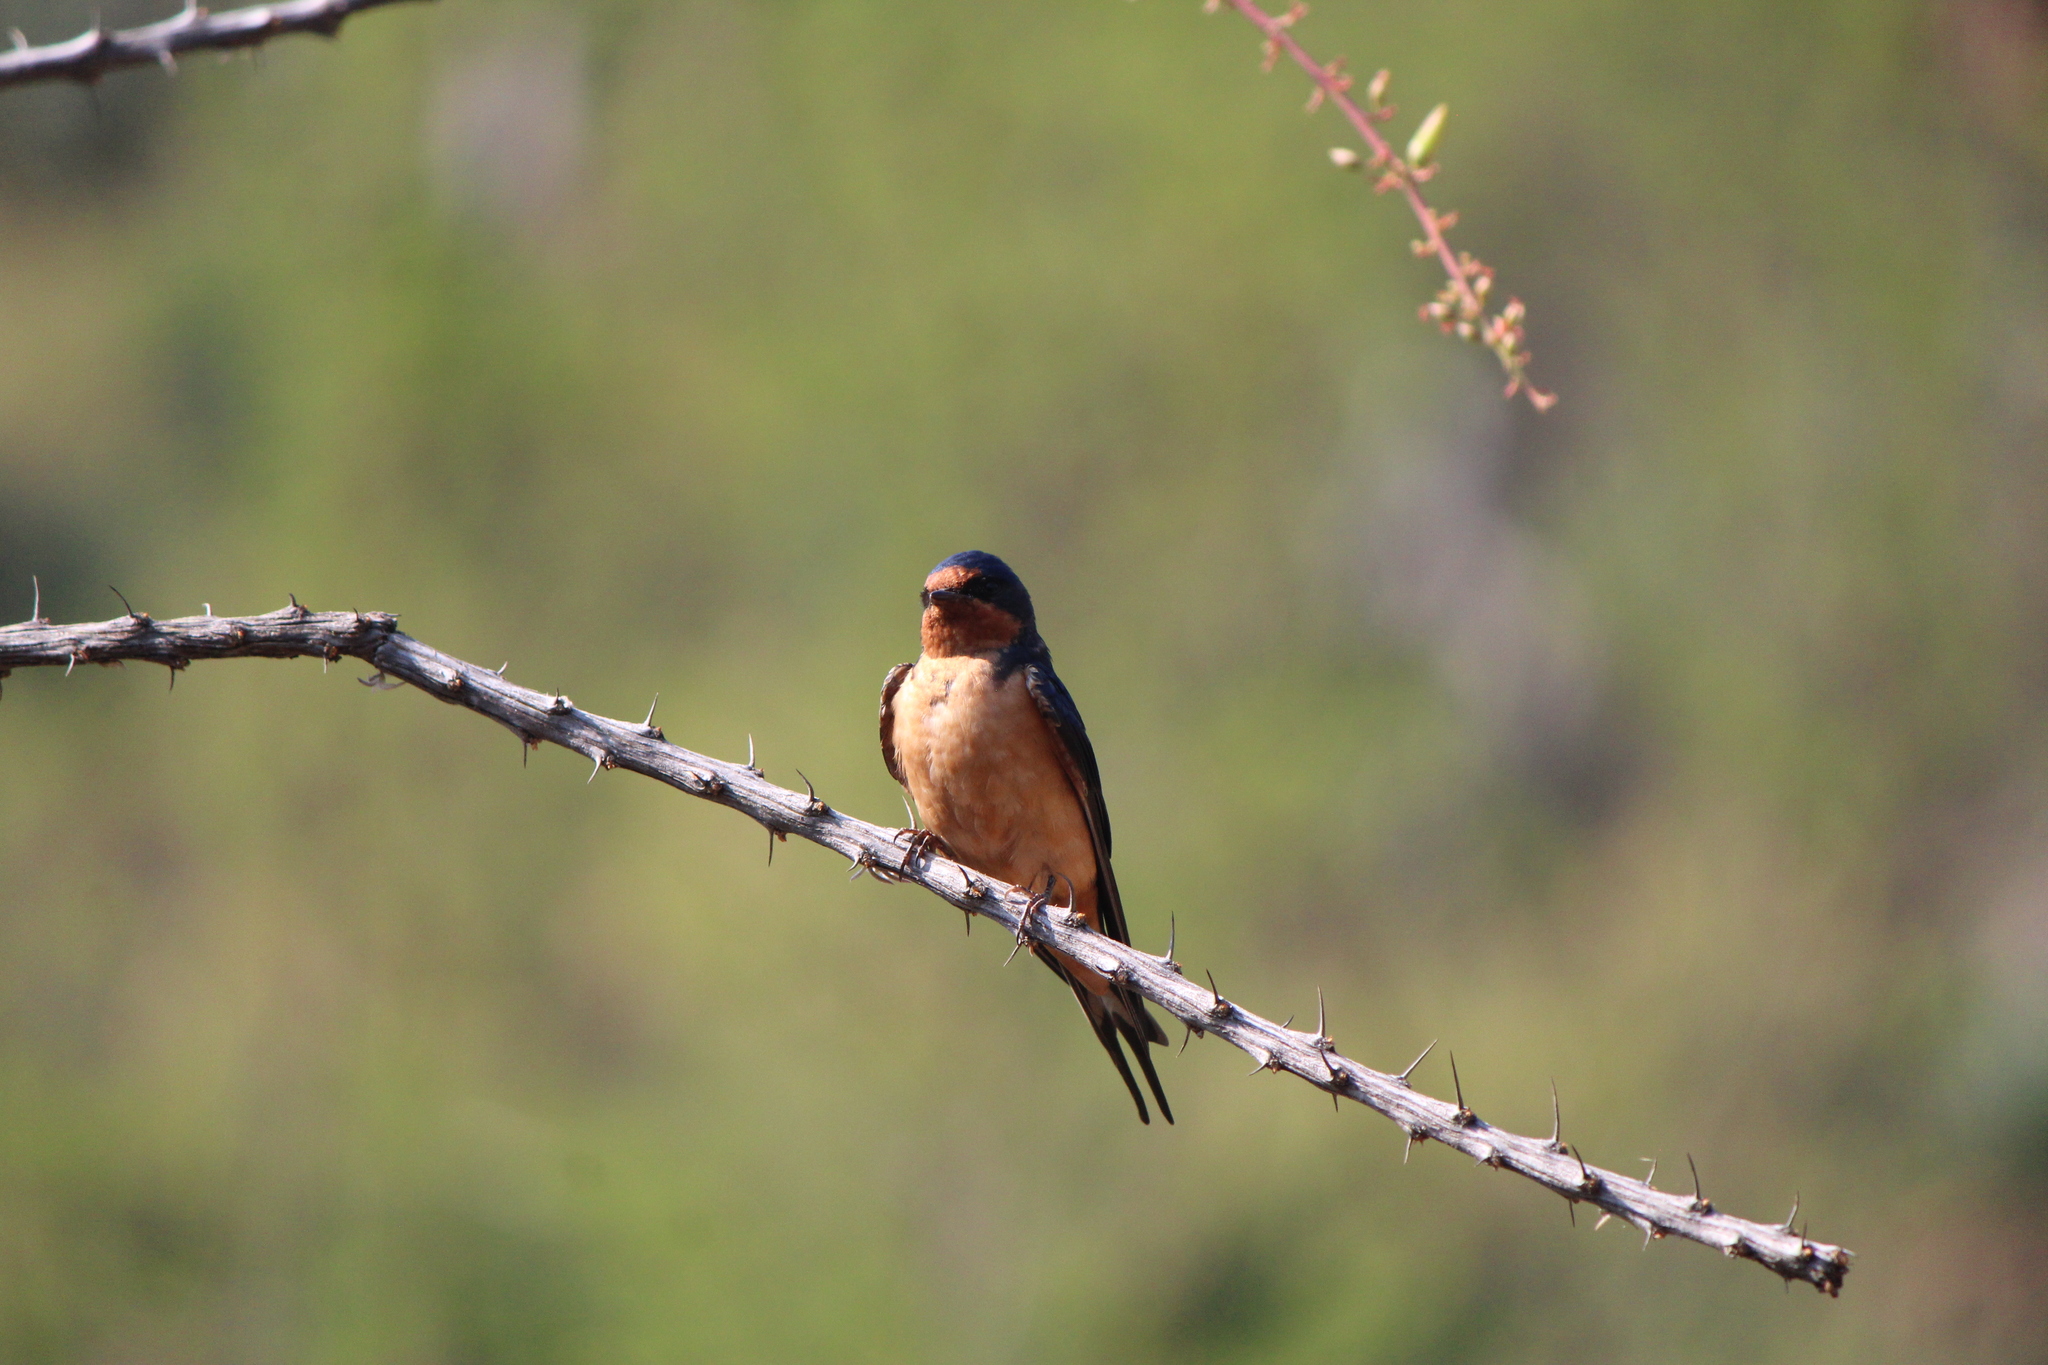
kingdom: Animalia
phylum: Chordata
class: Aves
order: Passeriformes
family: Hirundinidae
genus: Hirundo
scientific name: Hirundo rustica
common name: Barn swallow
